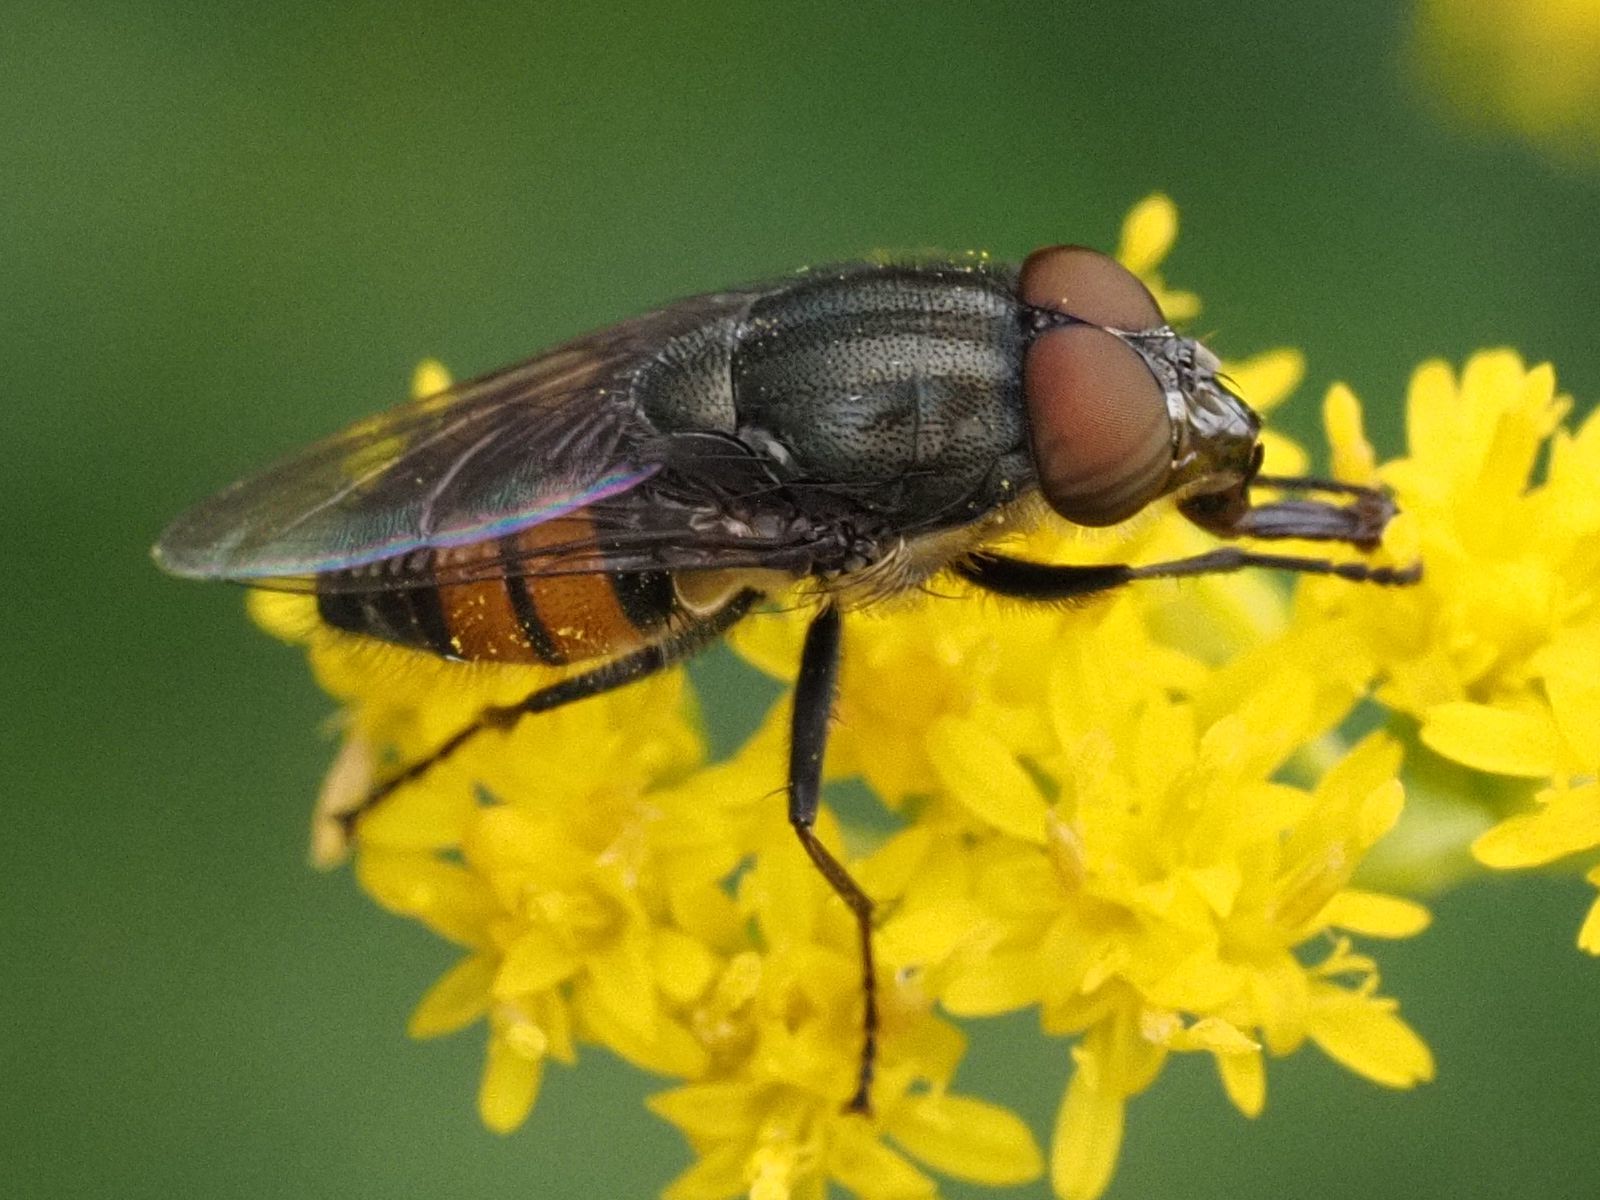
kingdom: Animalia
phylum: Arthropoda
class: Insecta
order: Diptera
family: Calliphoridae
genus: Stomorhina
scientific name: Stomorhina lunata
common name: Locust blowfly
